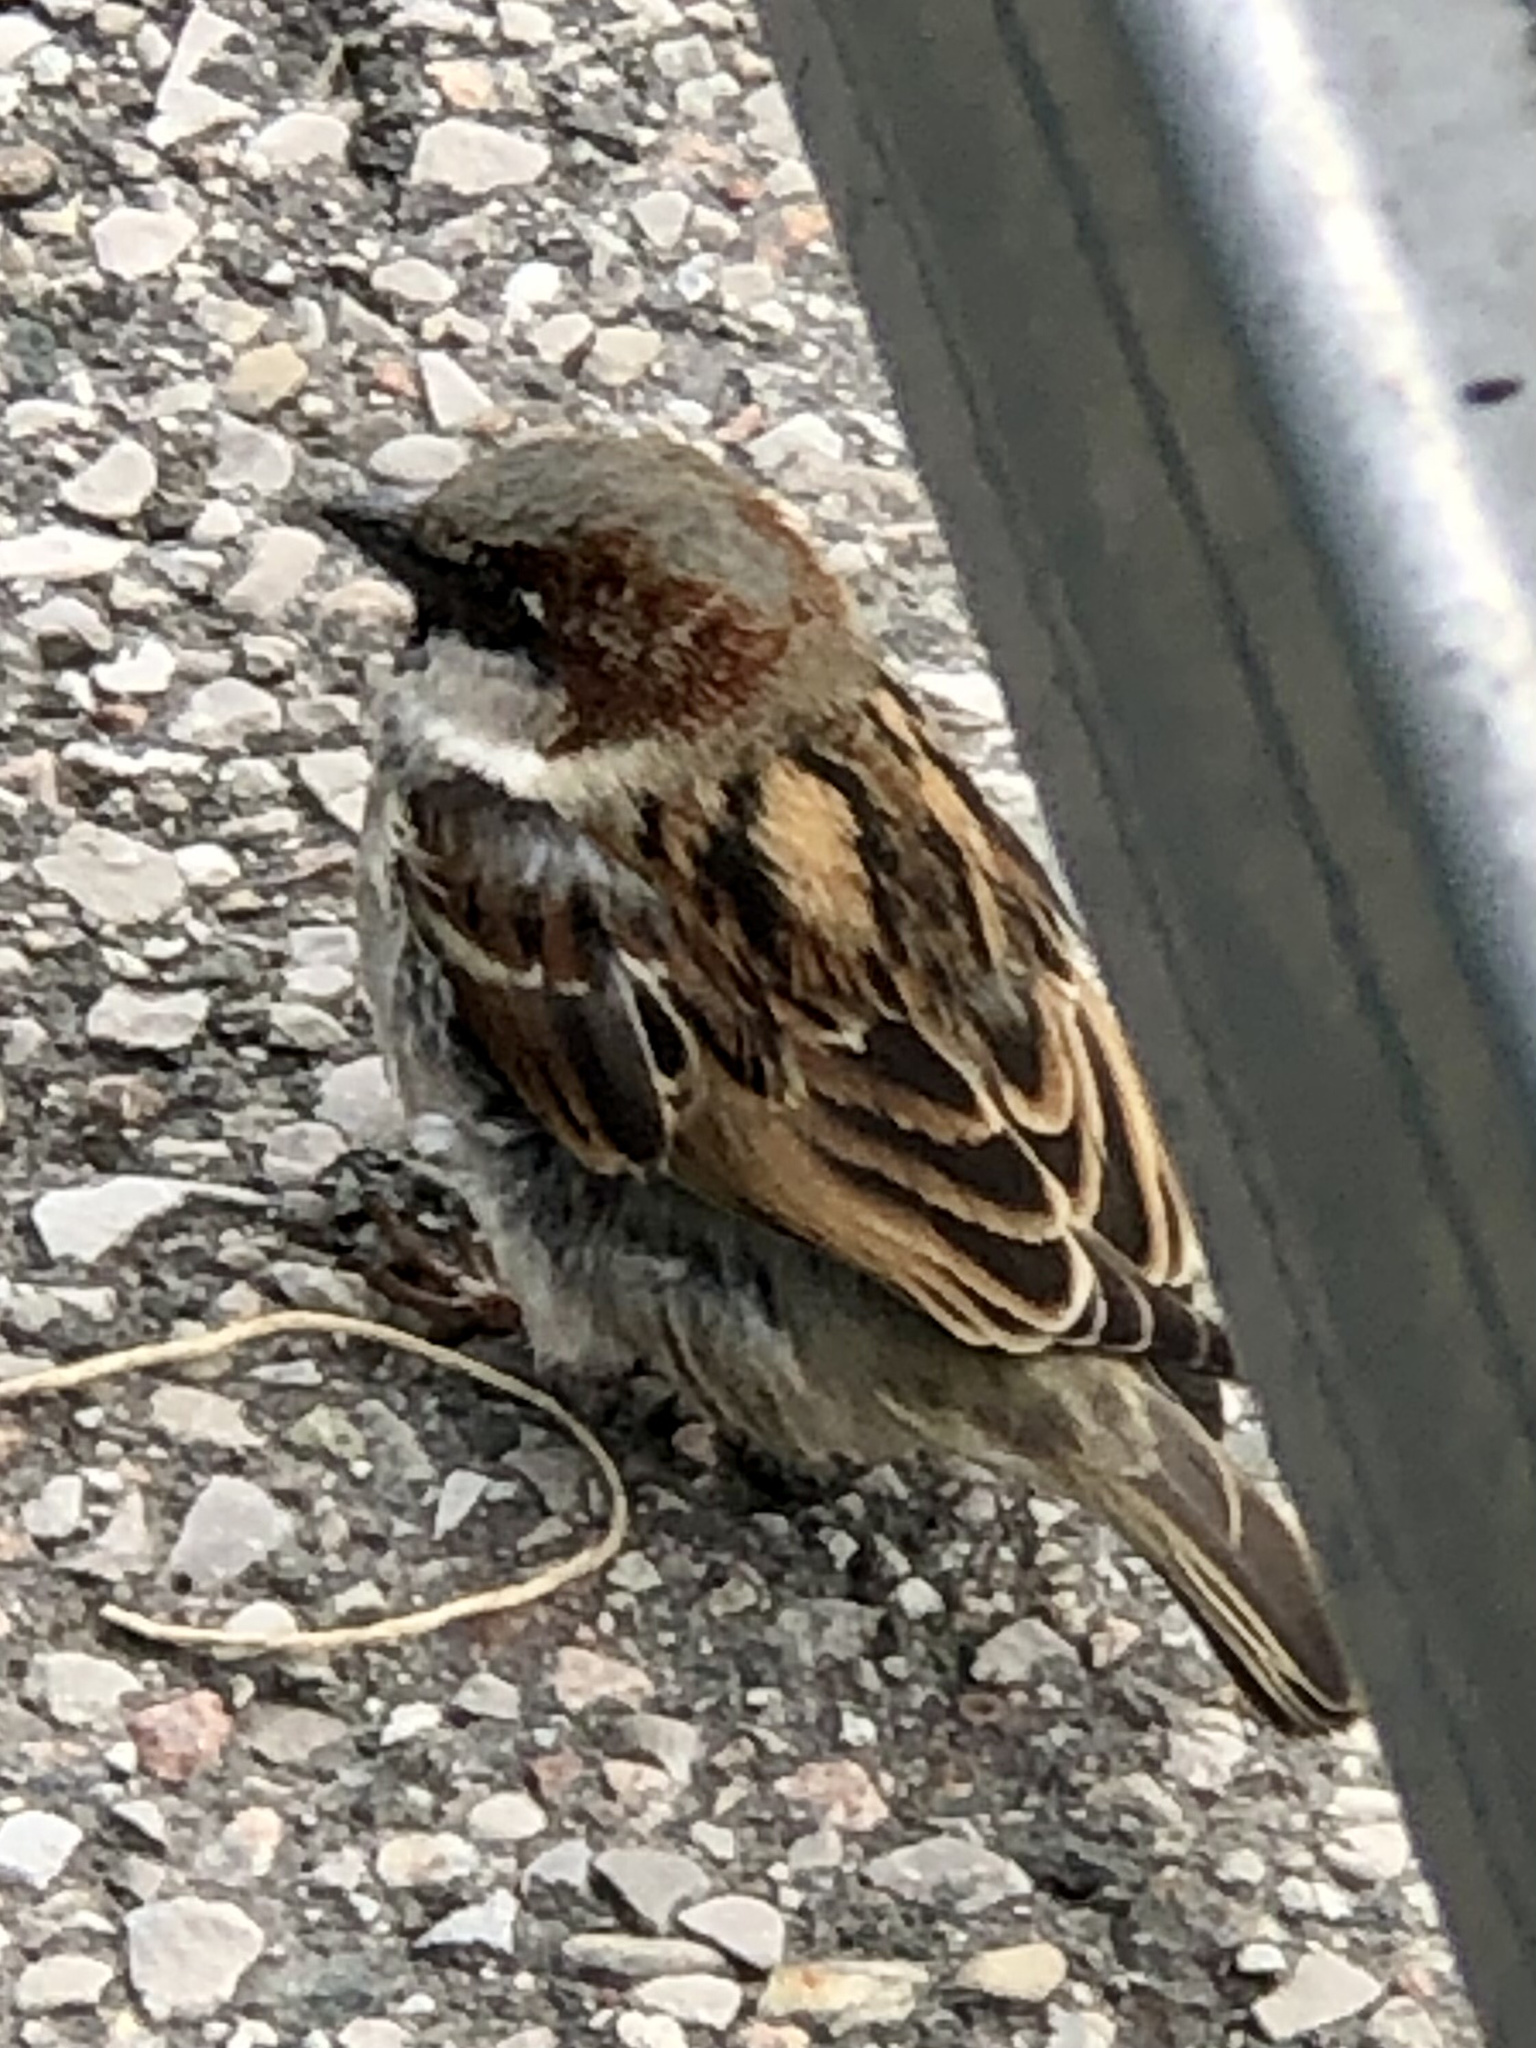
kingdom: Animalia
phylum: Chordata
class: Aves
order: Passeriformes
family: Passeridae
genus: Passer
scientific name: Passer domesticus
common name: House sparrow
